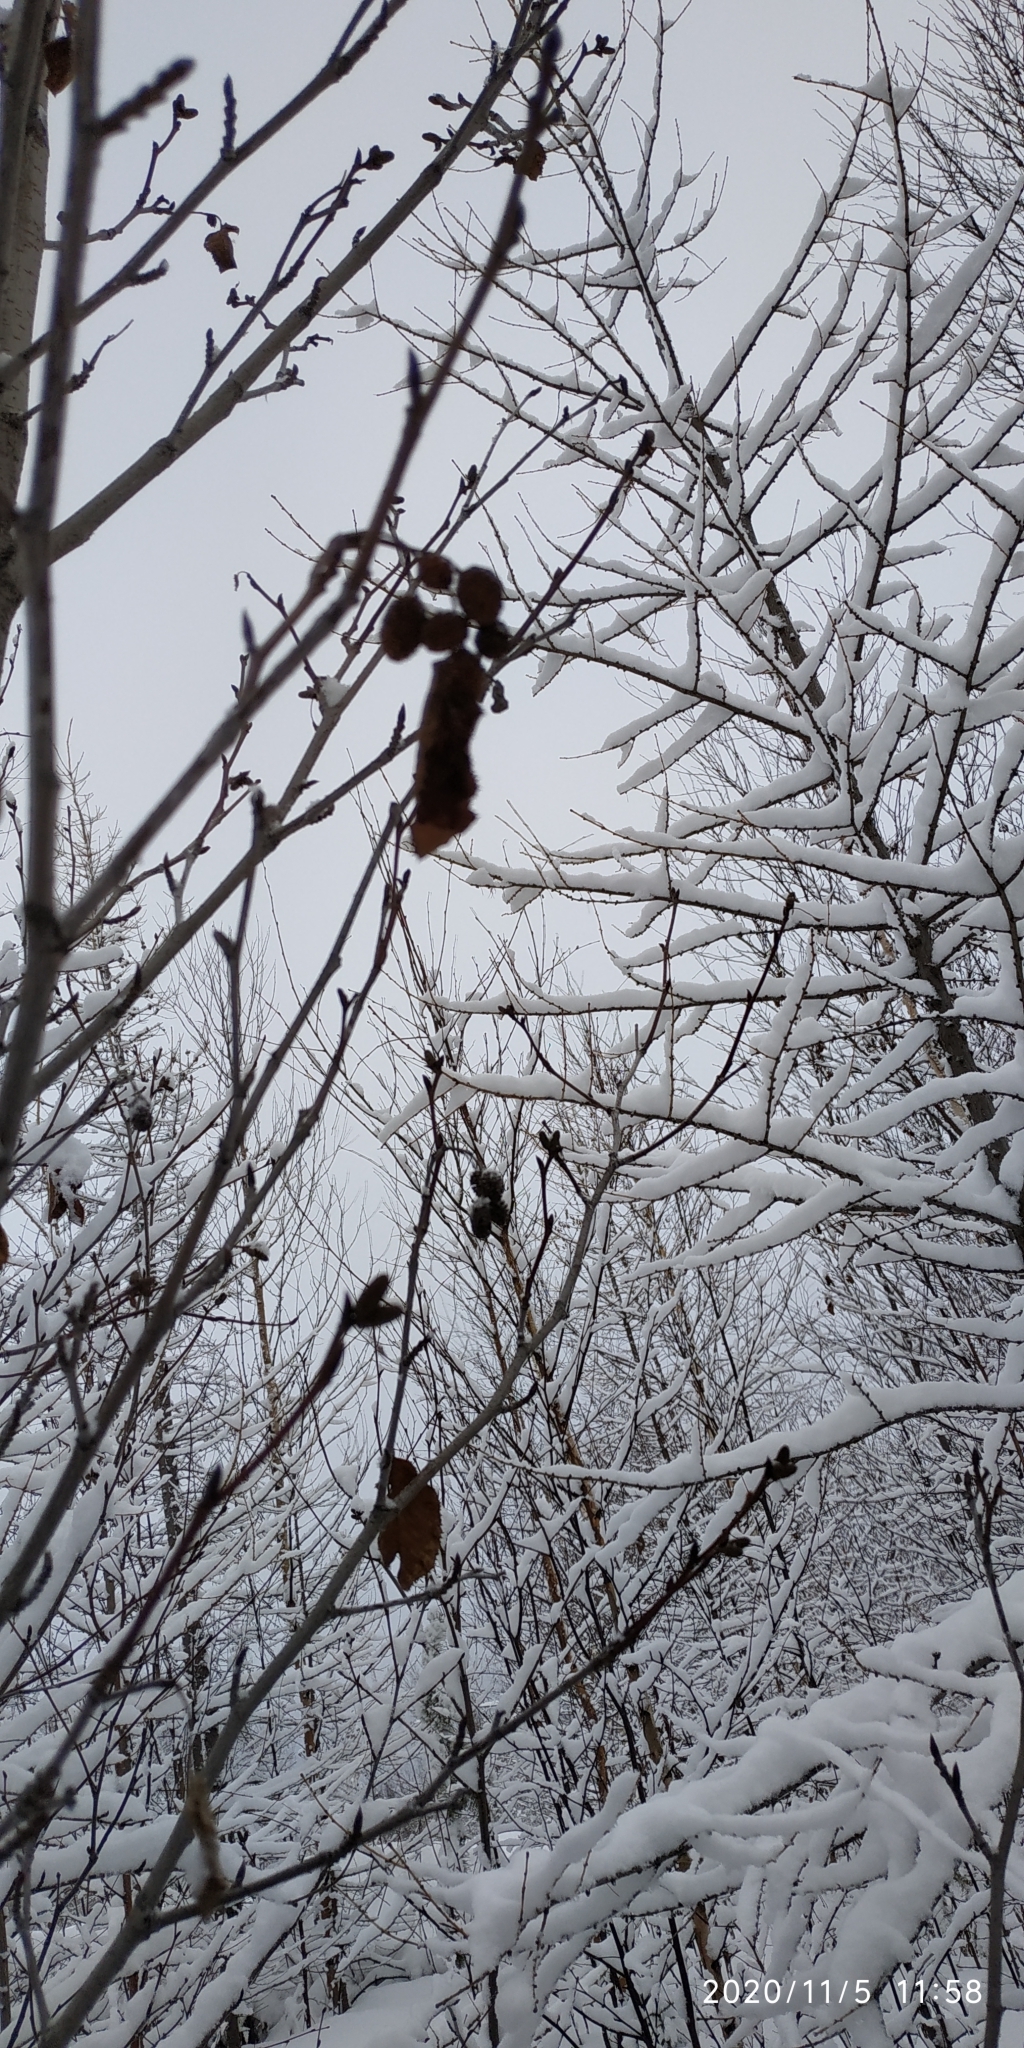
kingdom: Plantae
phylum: Tracheophyta
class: Magnoliopsida
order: Fagales
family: Betulaceae
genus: Alnus
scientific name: Alnus alnobetula
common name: Green alder
